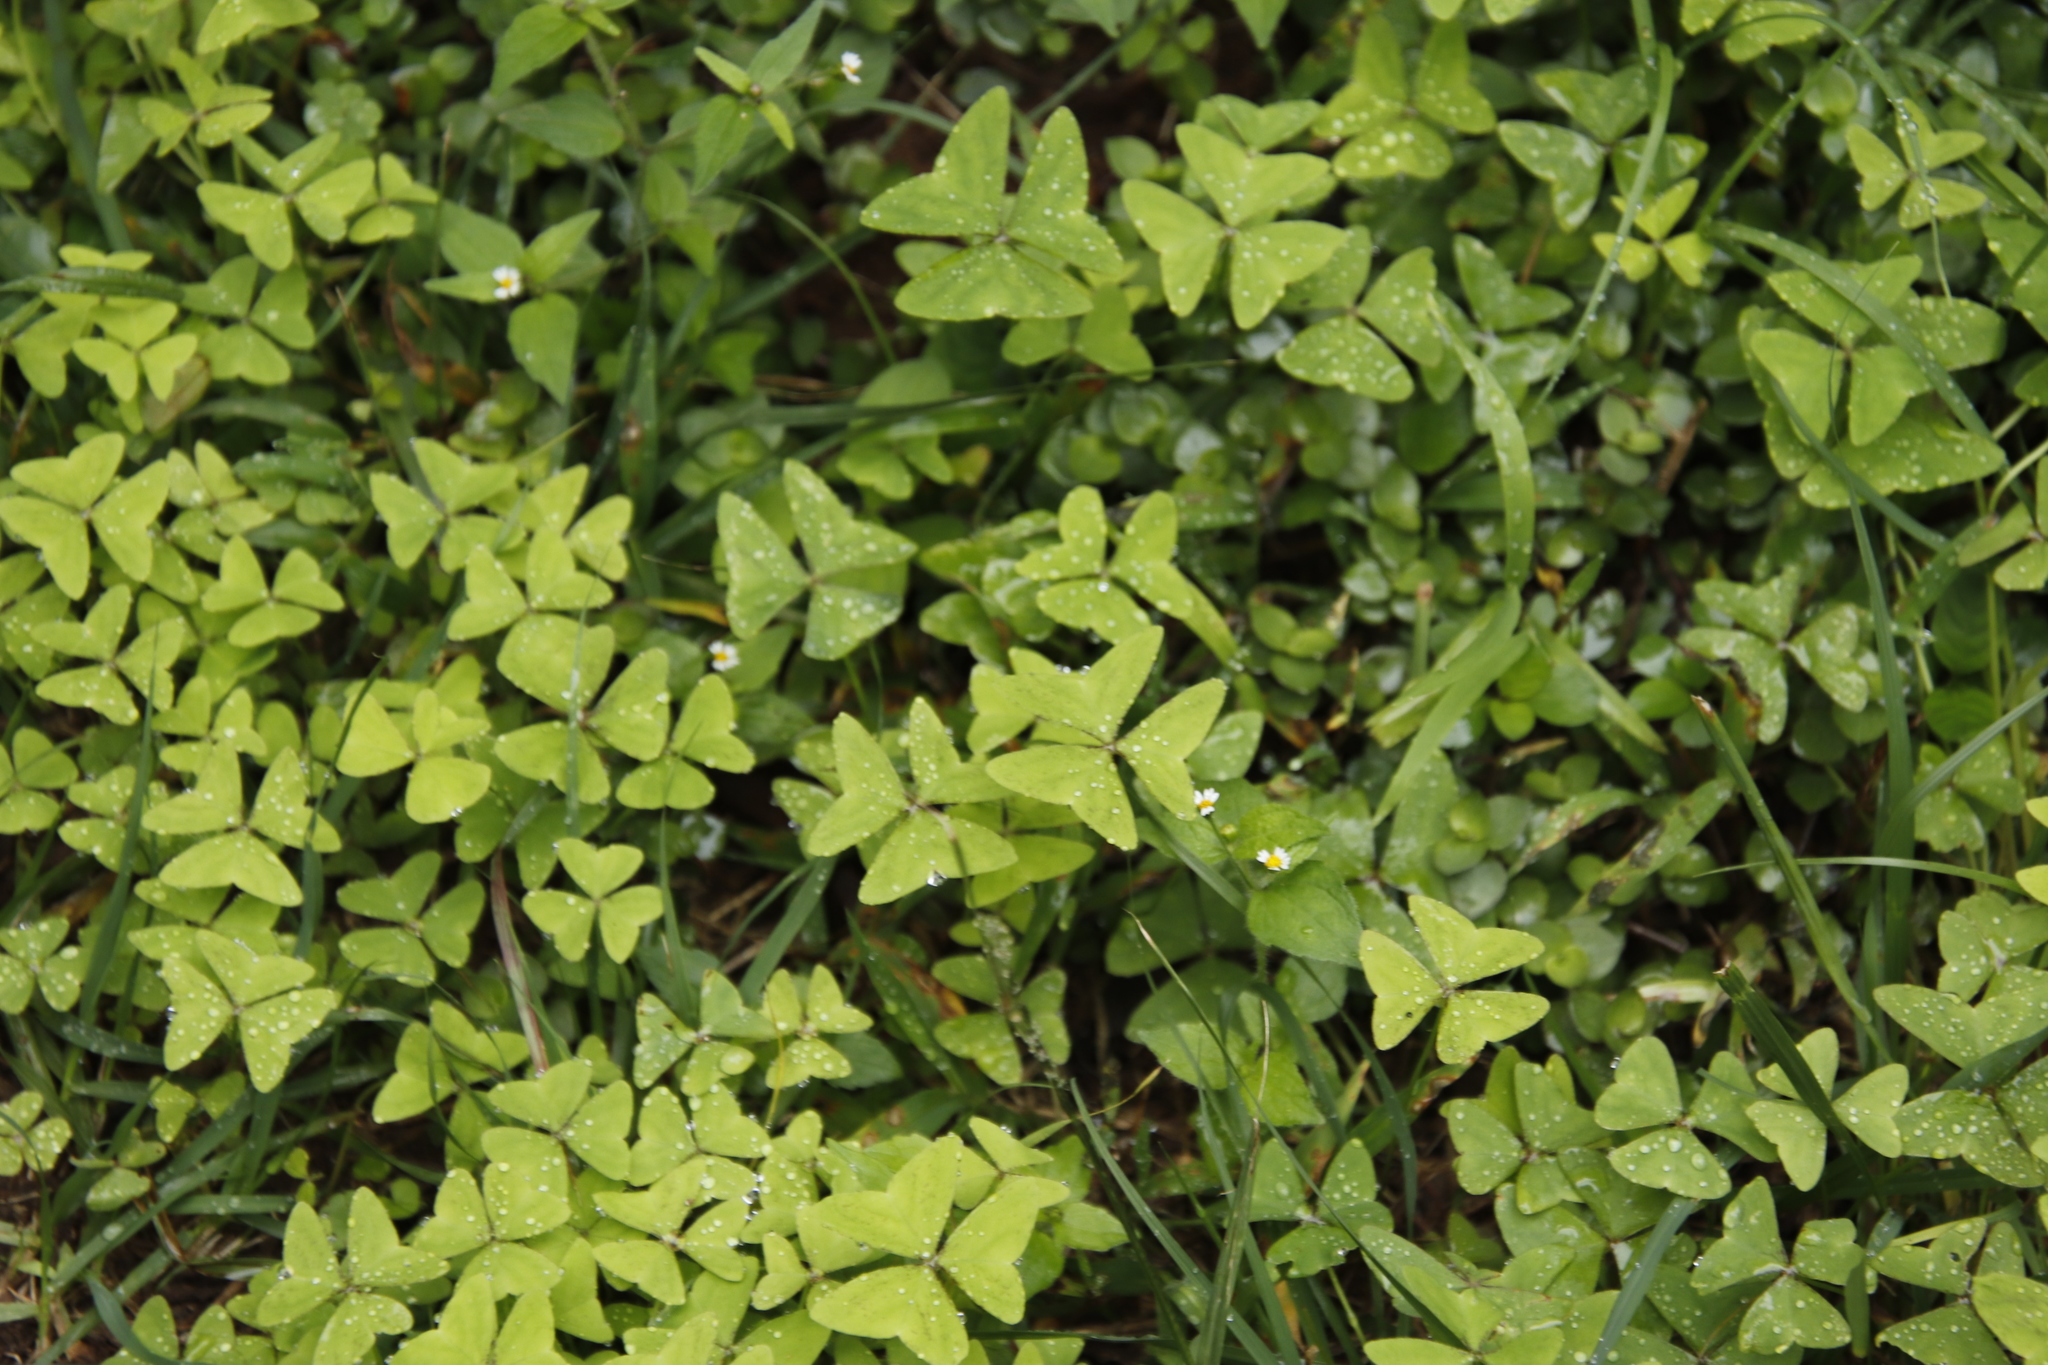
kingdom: Plantae
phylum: Tracheophyta
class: Magnoliopsida
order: Oxalidales
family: Oxalidaceae
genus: Oxalis
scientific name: Oxalis latifolia
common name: Garden pink-sorrel
